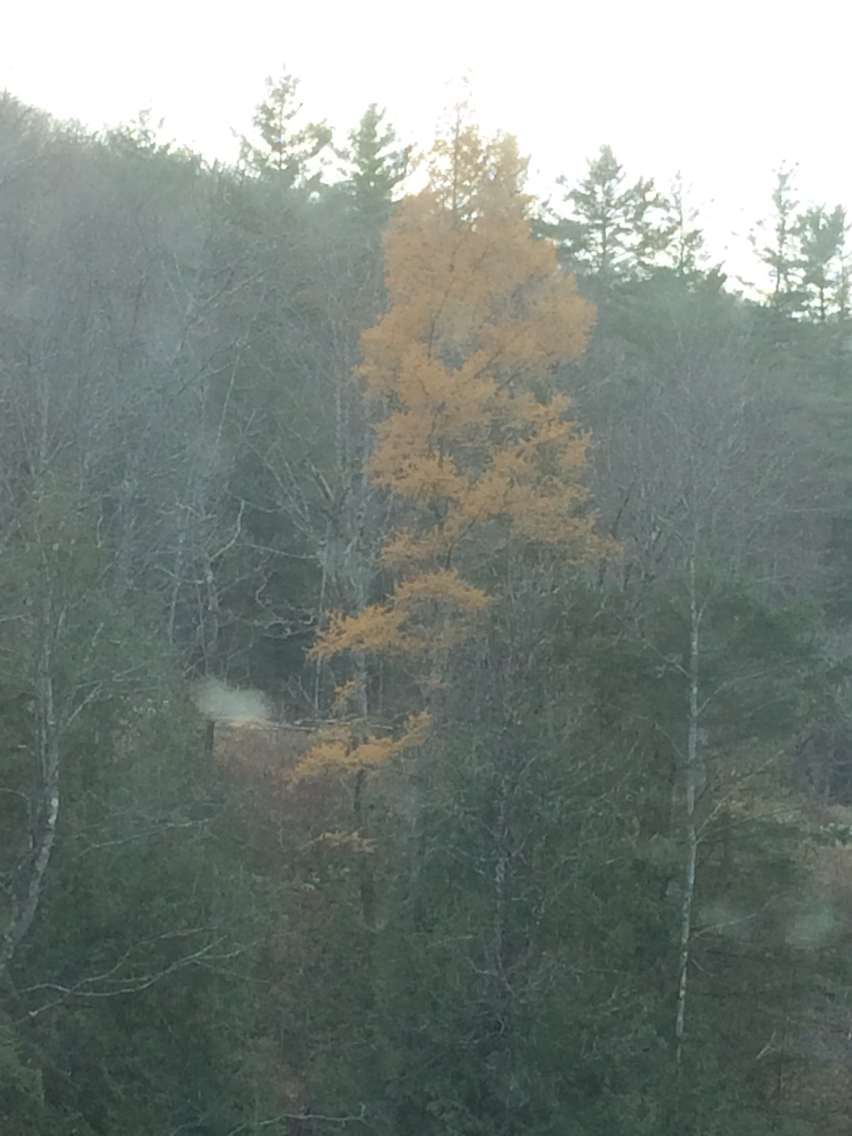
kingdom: Plantae
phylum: Tracheophyta
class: Pinopsida
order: Pinales
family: Pinaceae
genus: Larix
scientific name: Larix laricina
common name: American larch
